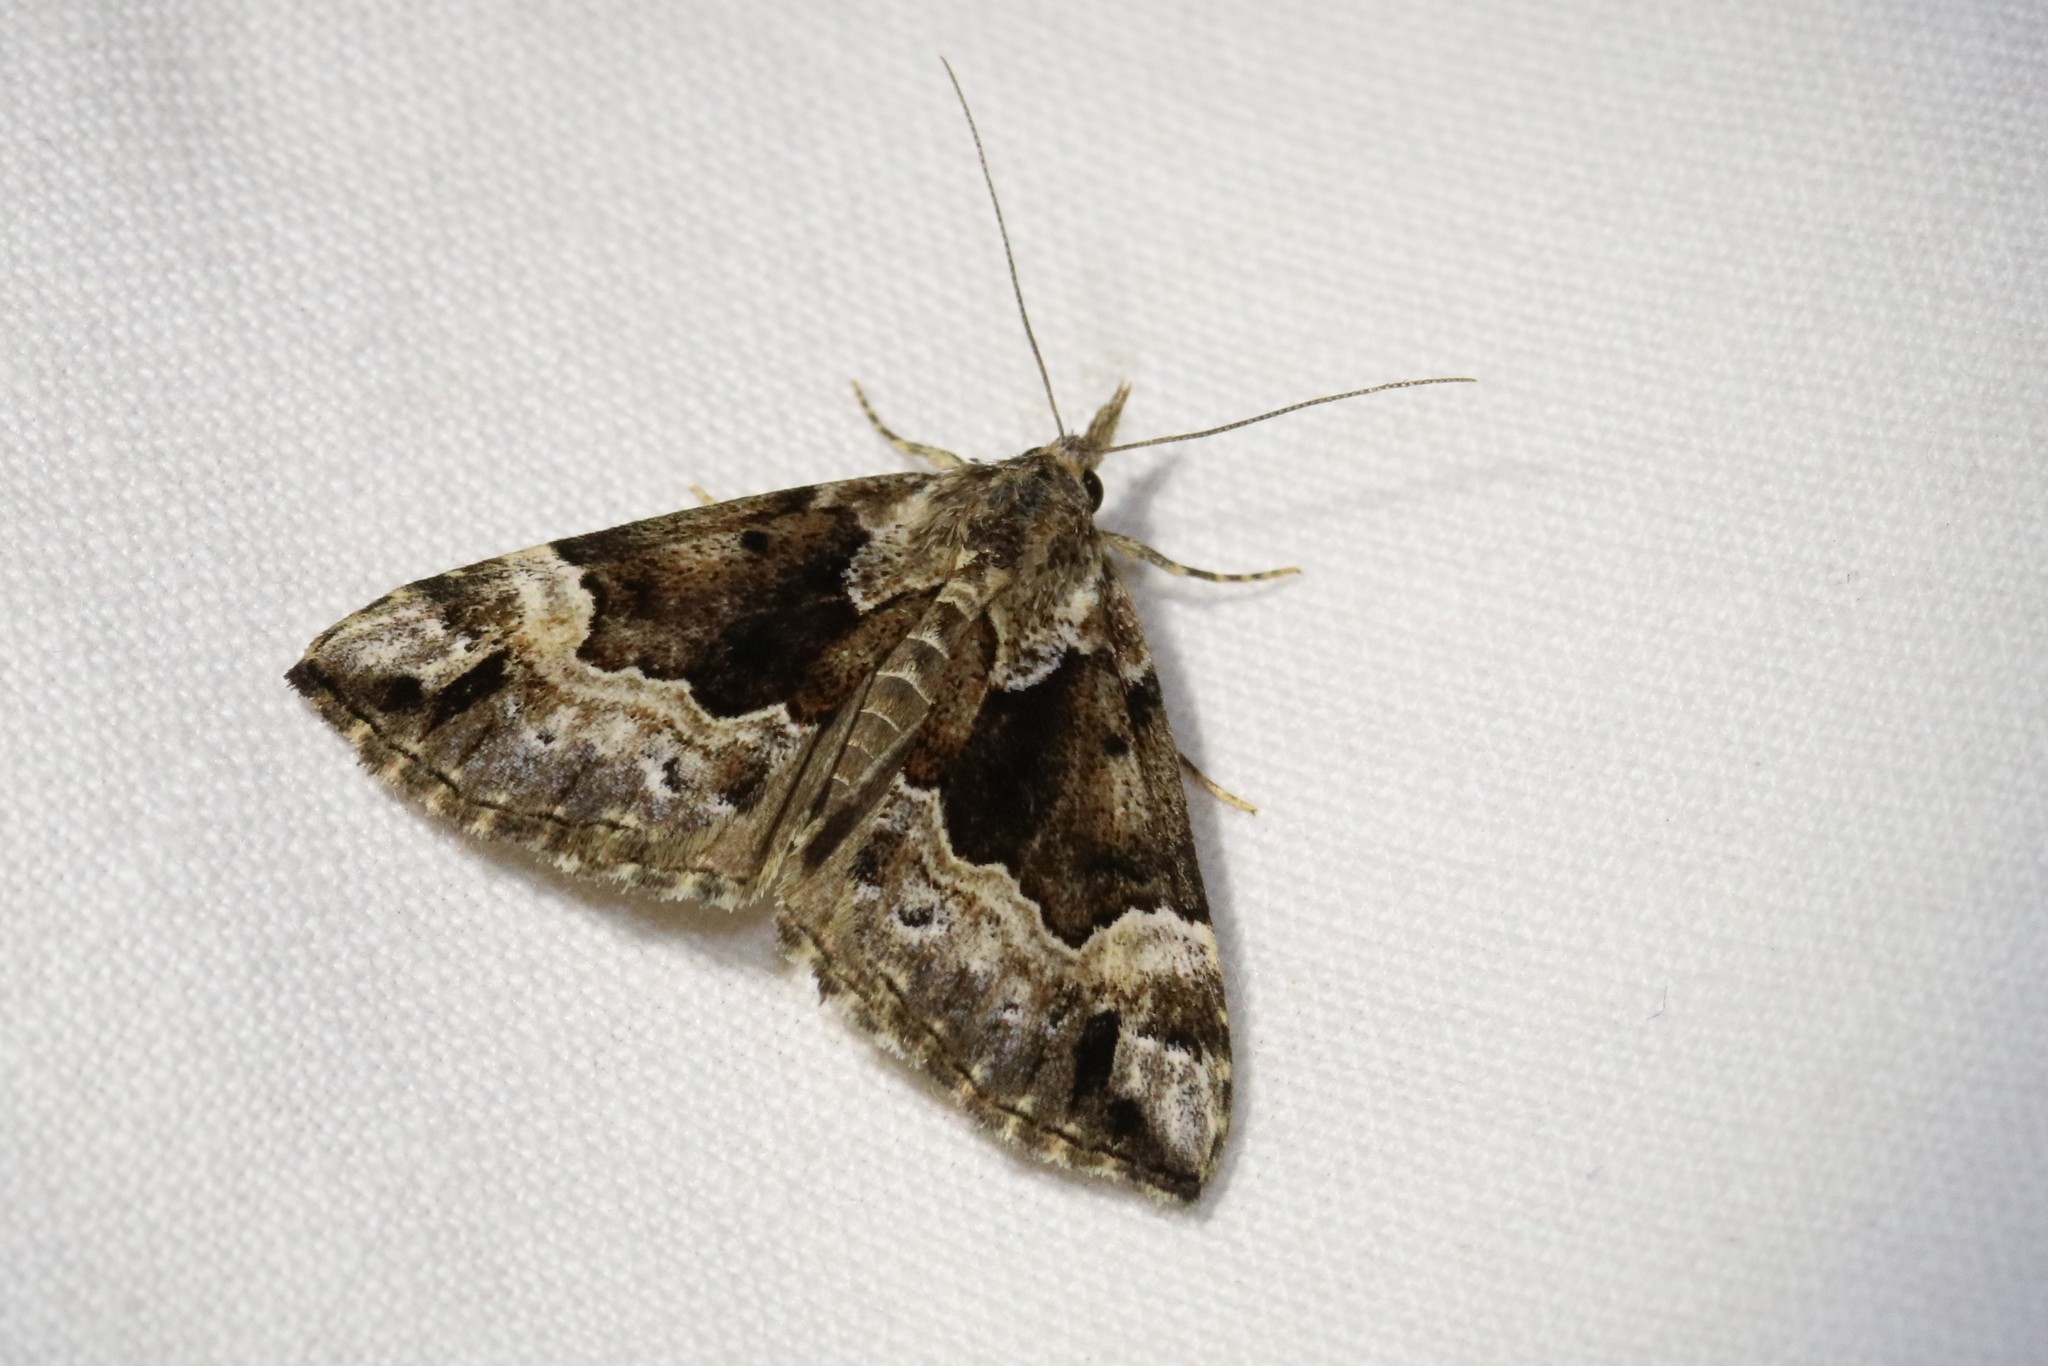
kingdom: Animalia
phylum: Arthropoda
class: Insecta
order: Lepidoptera
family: Erebidae
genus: Hypena
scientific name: Hypena palparia
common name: Mottled bomolocha moth
